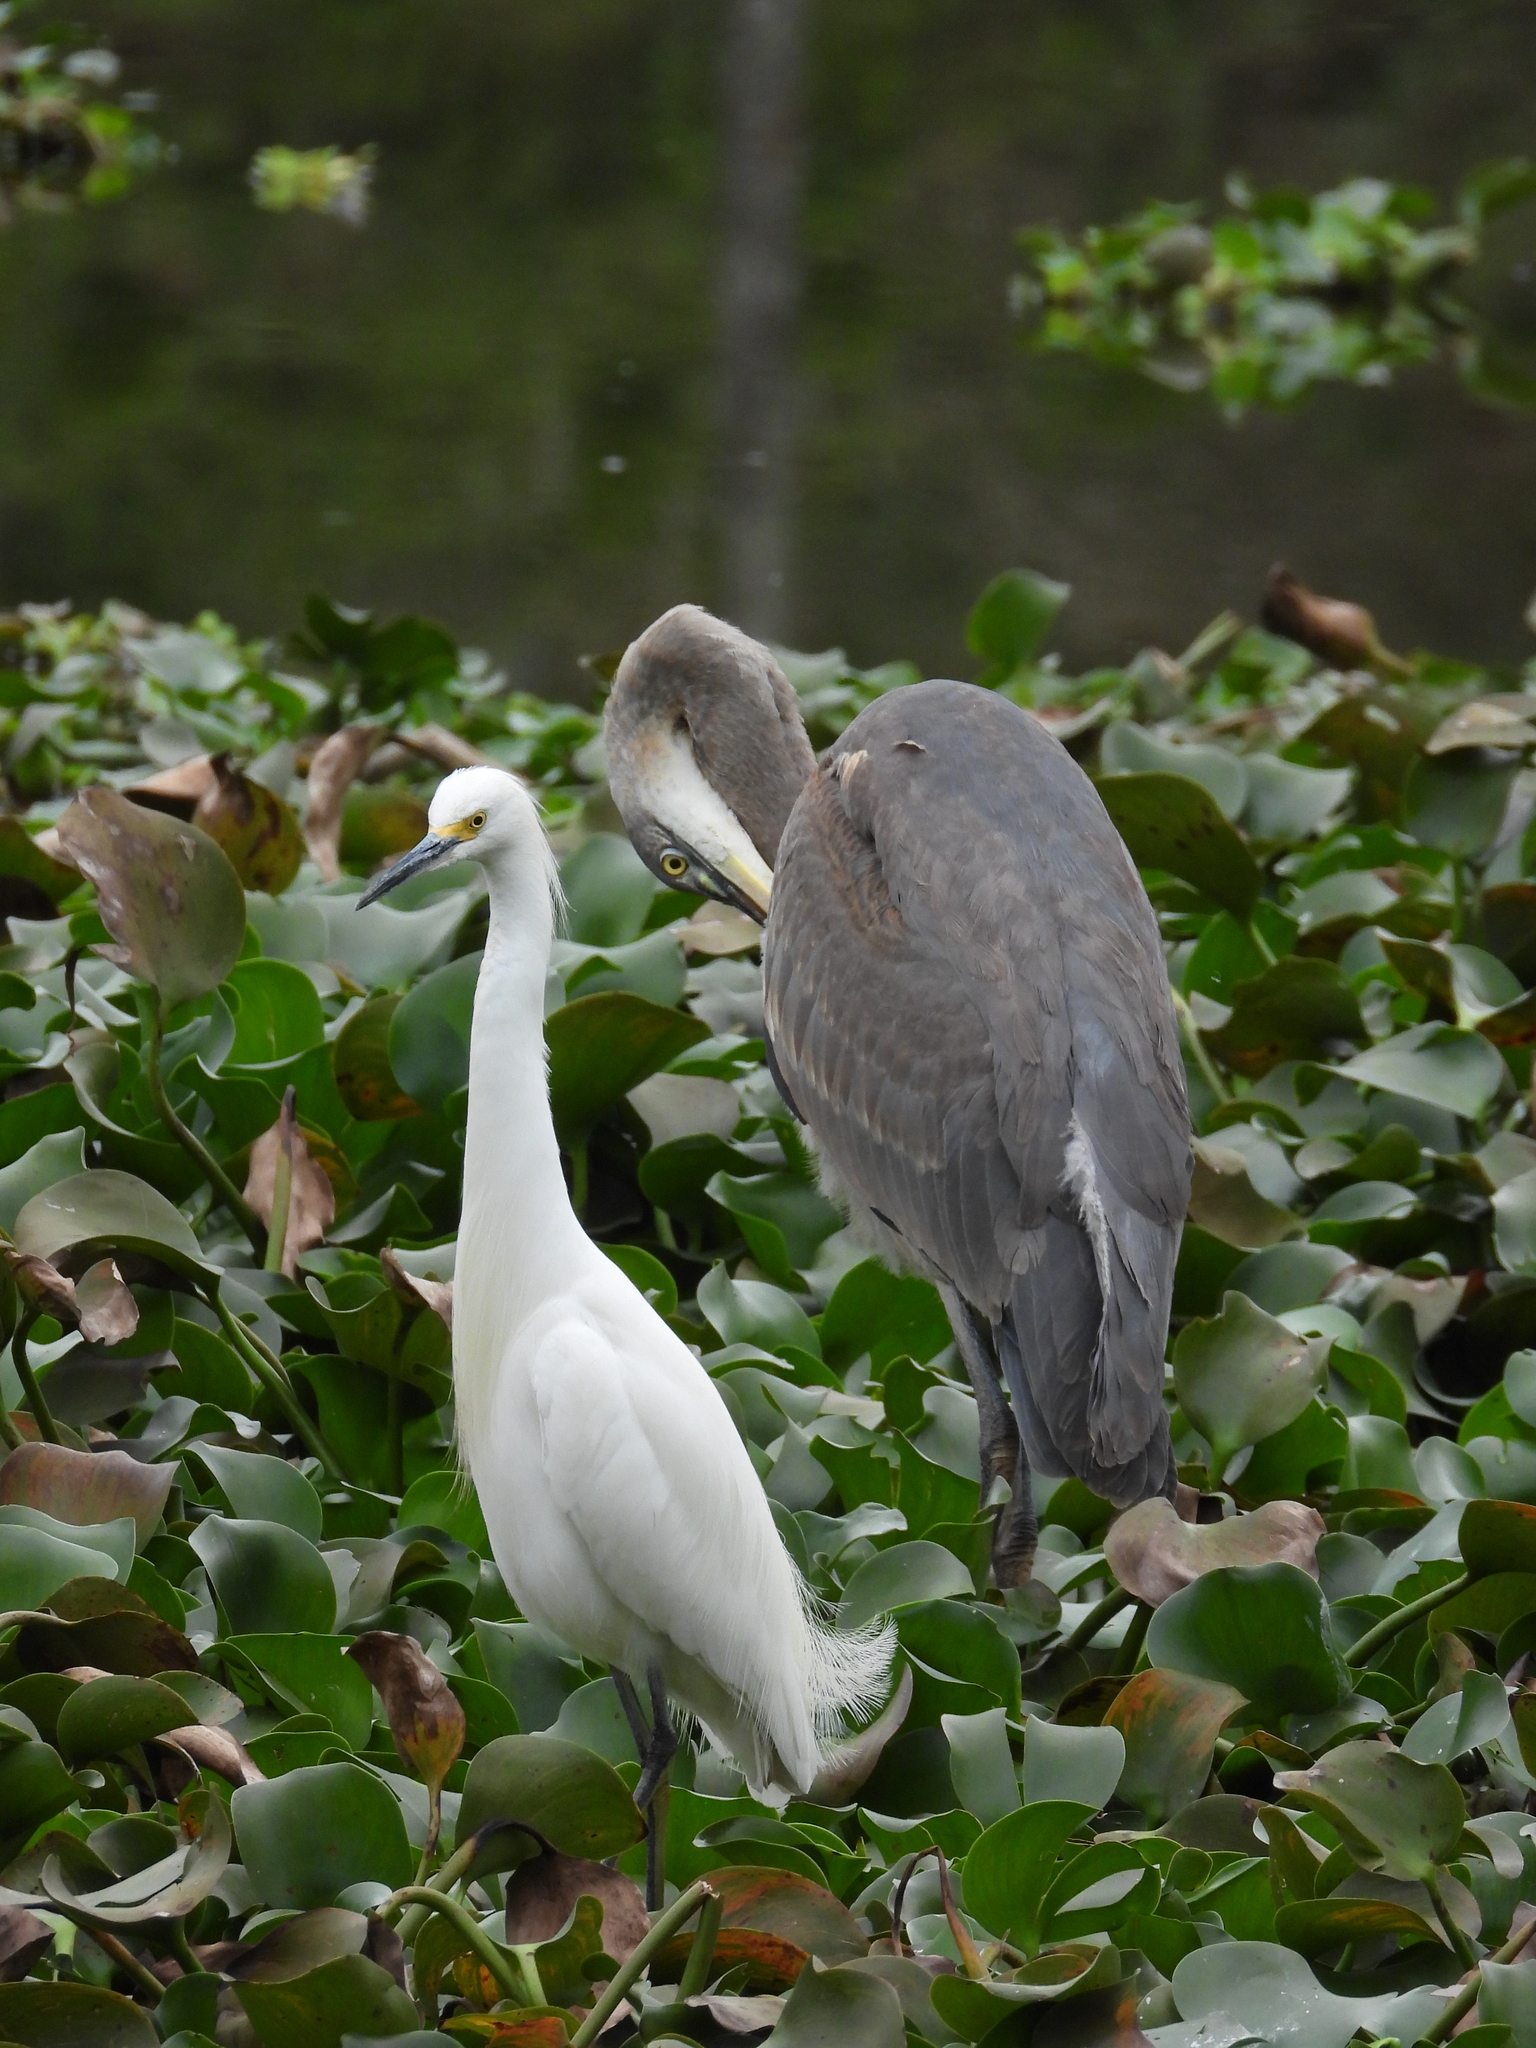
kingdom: Animalia
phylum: Chordata
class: Aves
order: Pelecaniformes
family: Ardeidae
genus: Egretta
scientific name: Egretta thula
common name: Snowy egret
